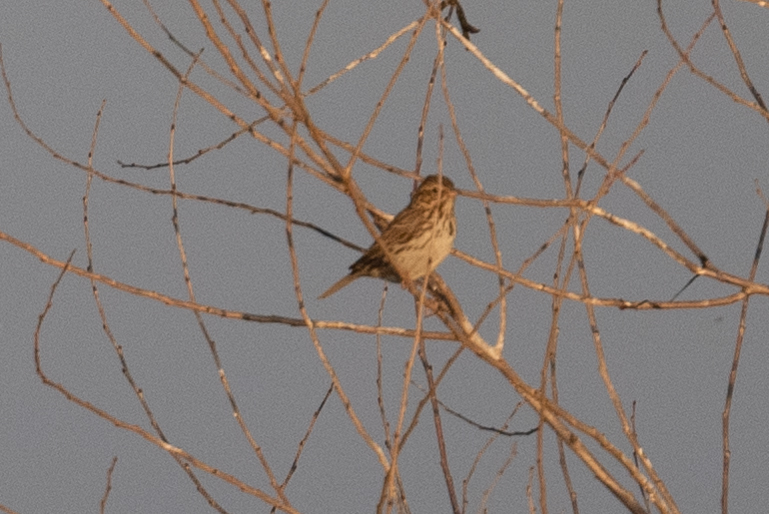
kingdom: Animalia
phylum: Chordata
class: Aves
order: Passeriformes
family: Passerellidae
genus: Passerculus
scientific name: Passerculus sandwichensis
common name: Savannah sparrow
